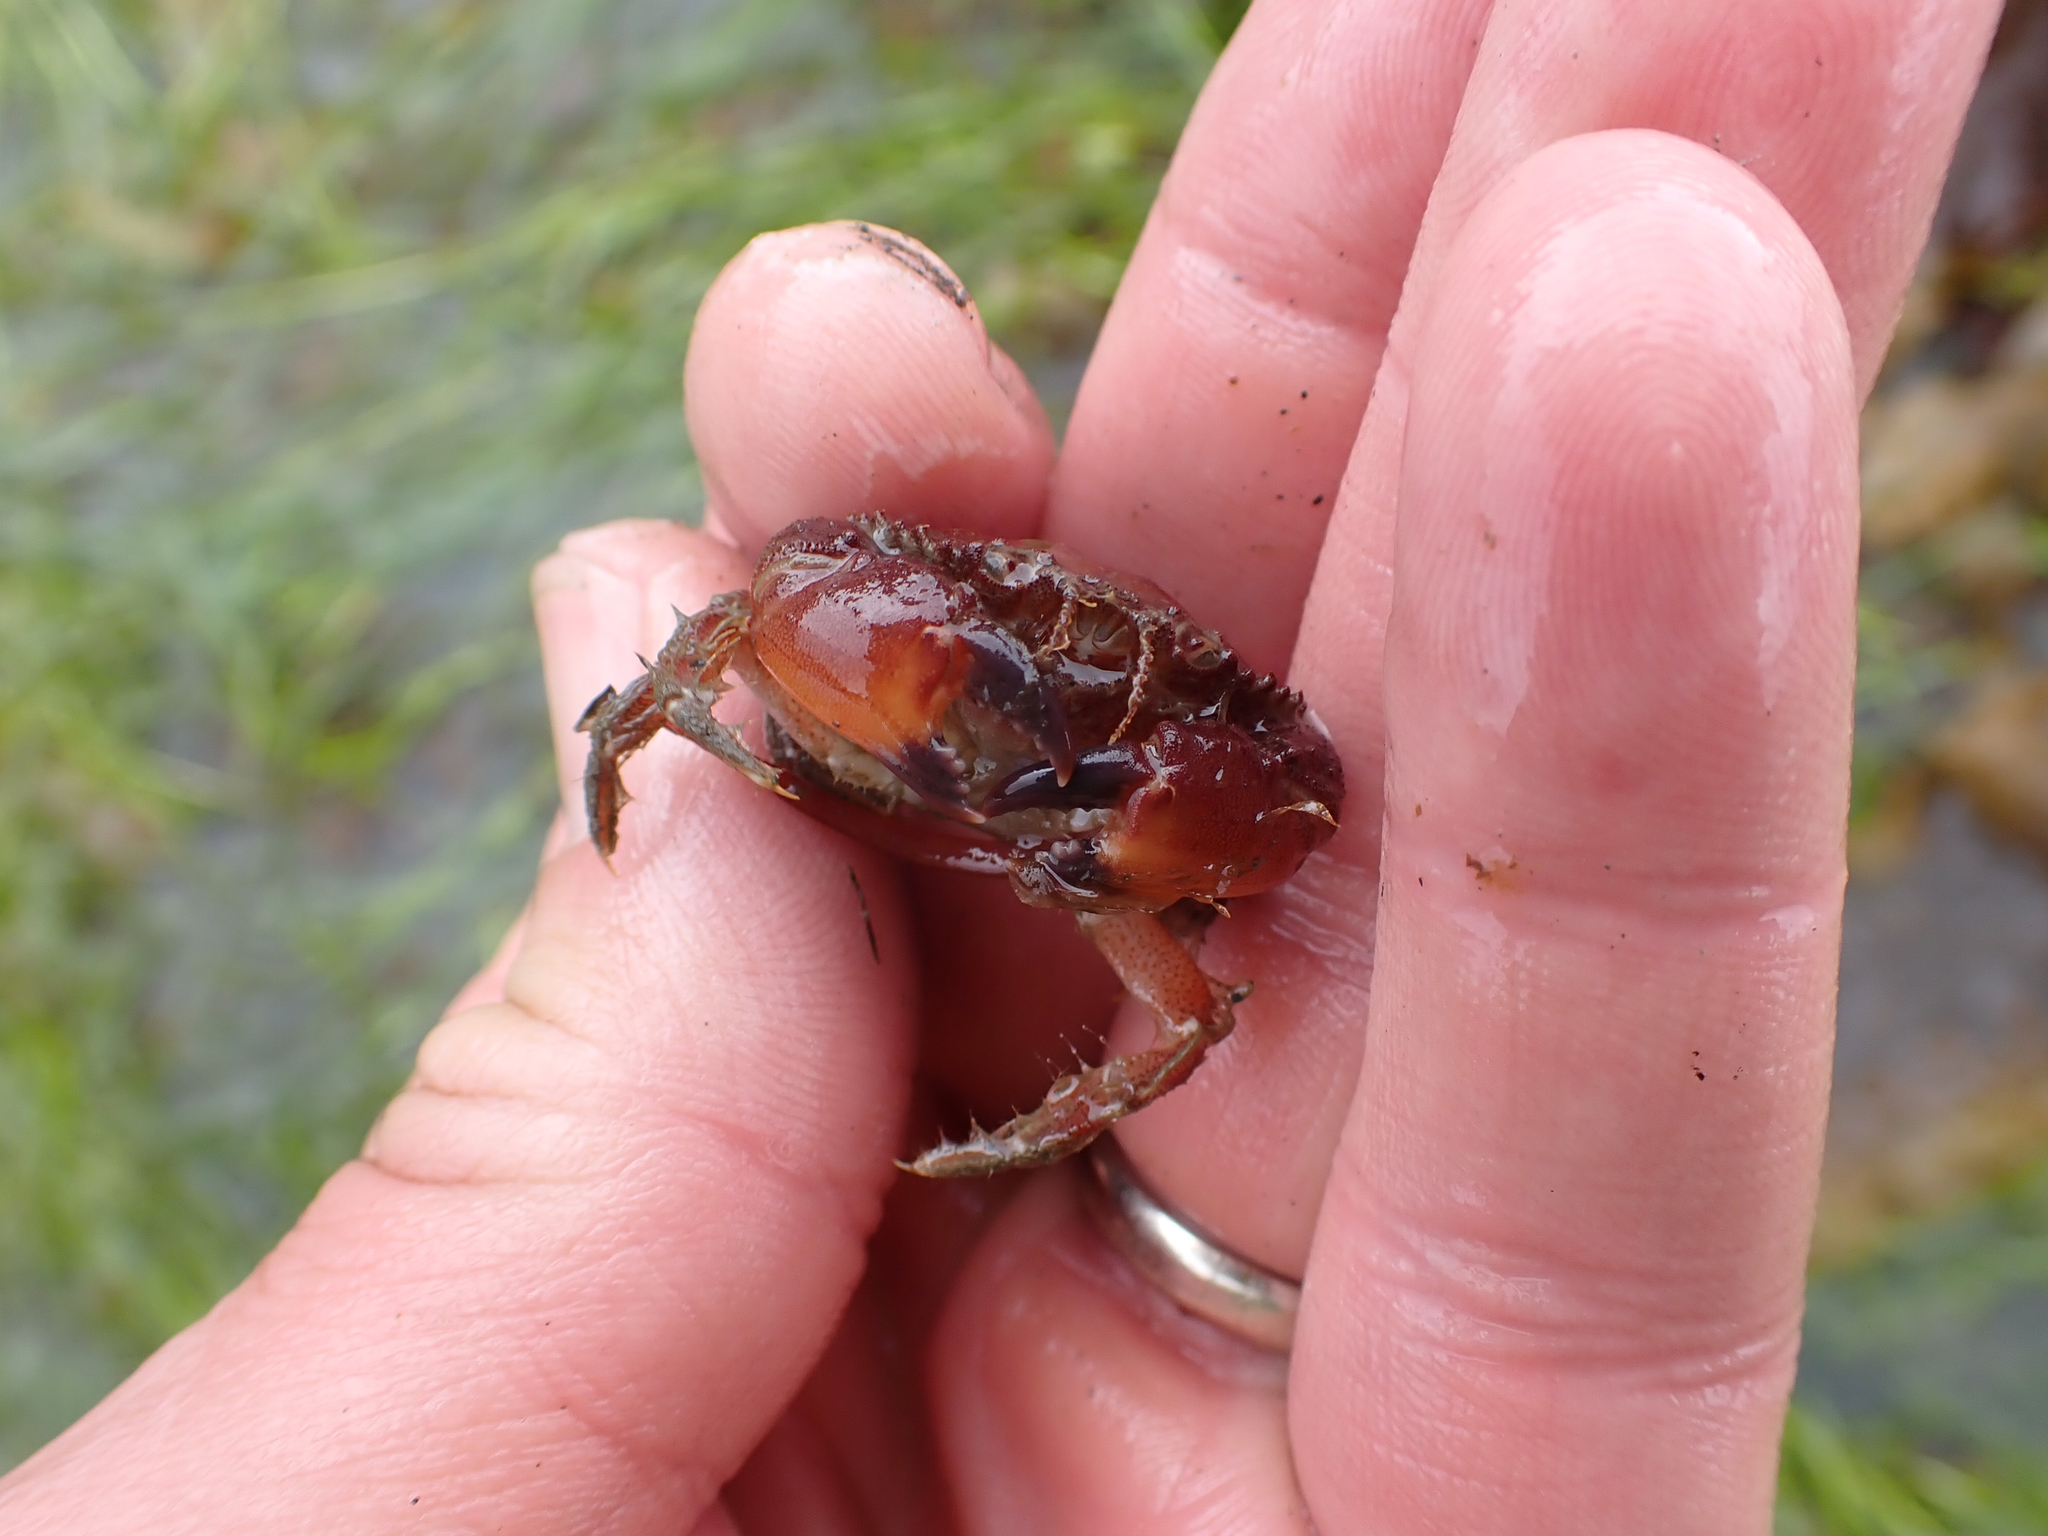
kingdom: Animalia
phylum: Arthropoda
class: Malacostraca
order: Decapoda
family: Cancridae
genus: Glebocarcinus
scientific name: Glebocarcinus oregonensis
